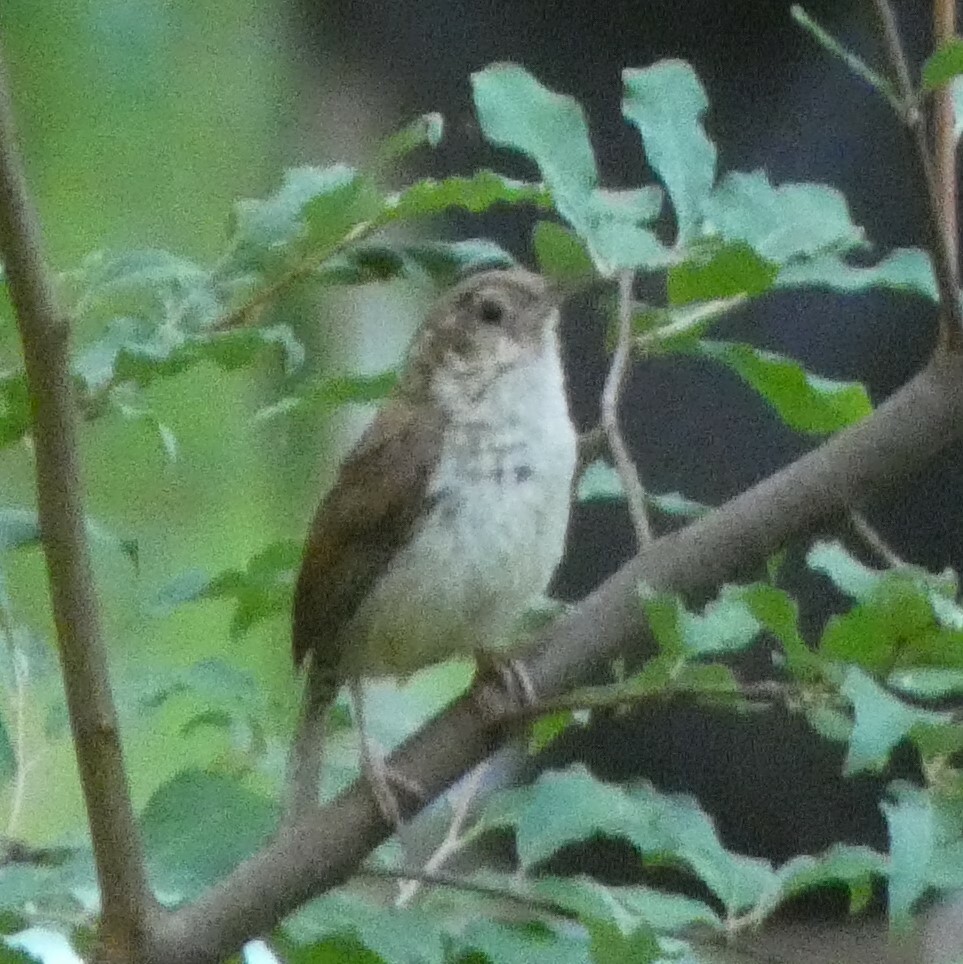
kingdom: Animalia
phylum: Chordata
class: Aves
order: Passeriformes
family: Troglodytidae
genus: Thryothorus
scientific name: Thryothorus ludovicianus
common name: Carolina wren
